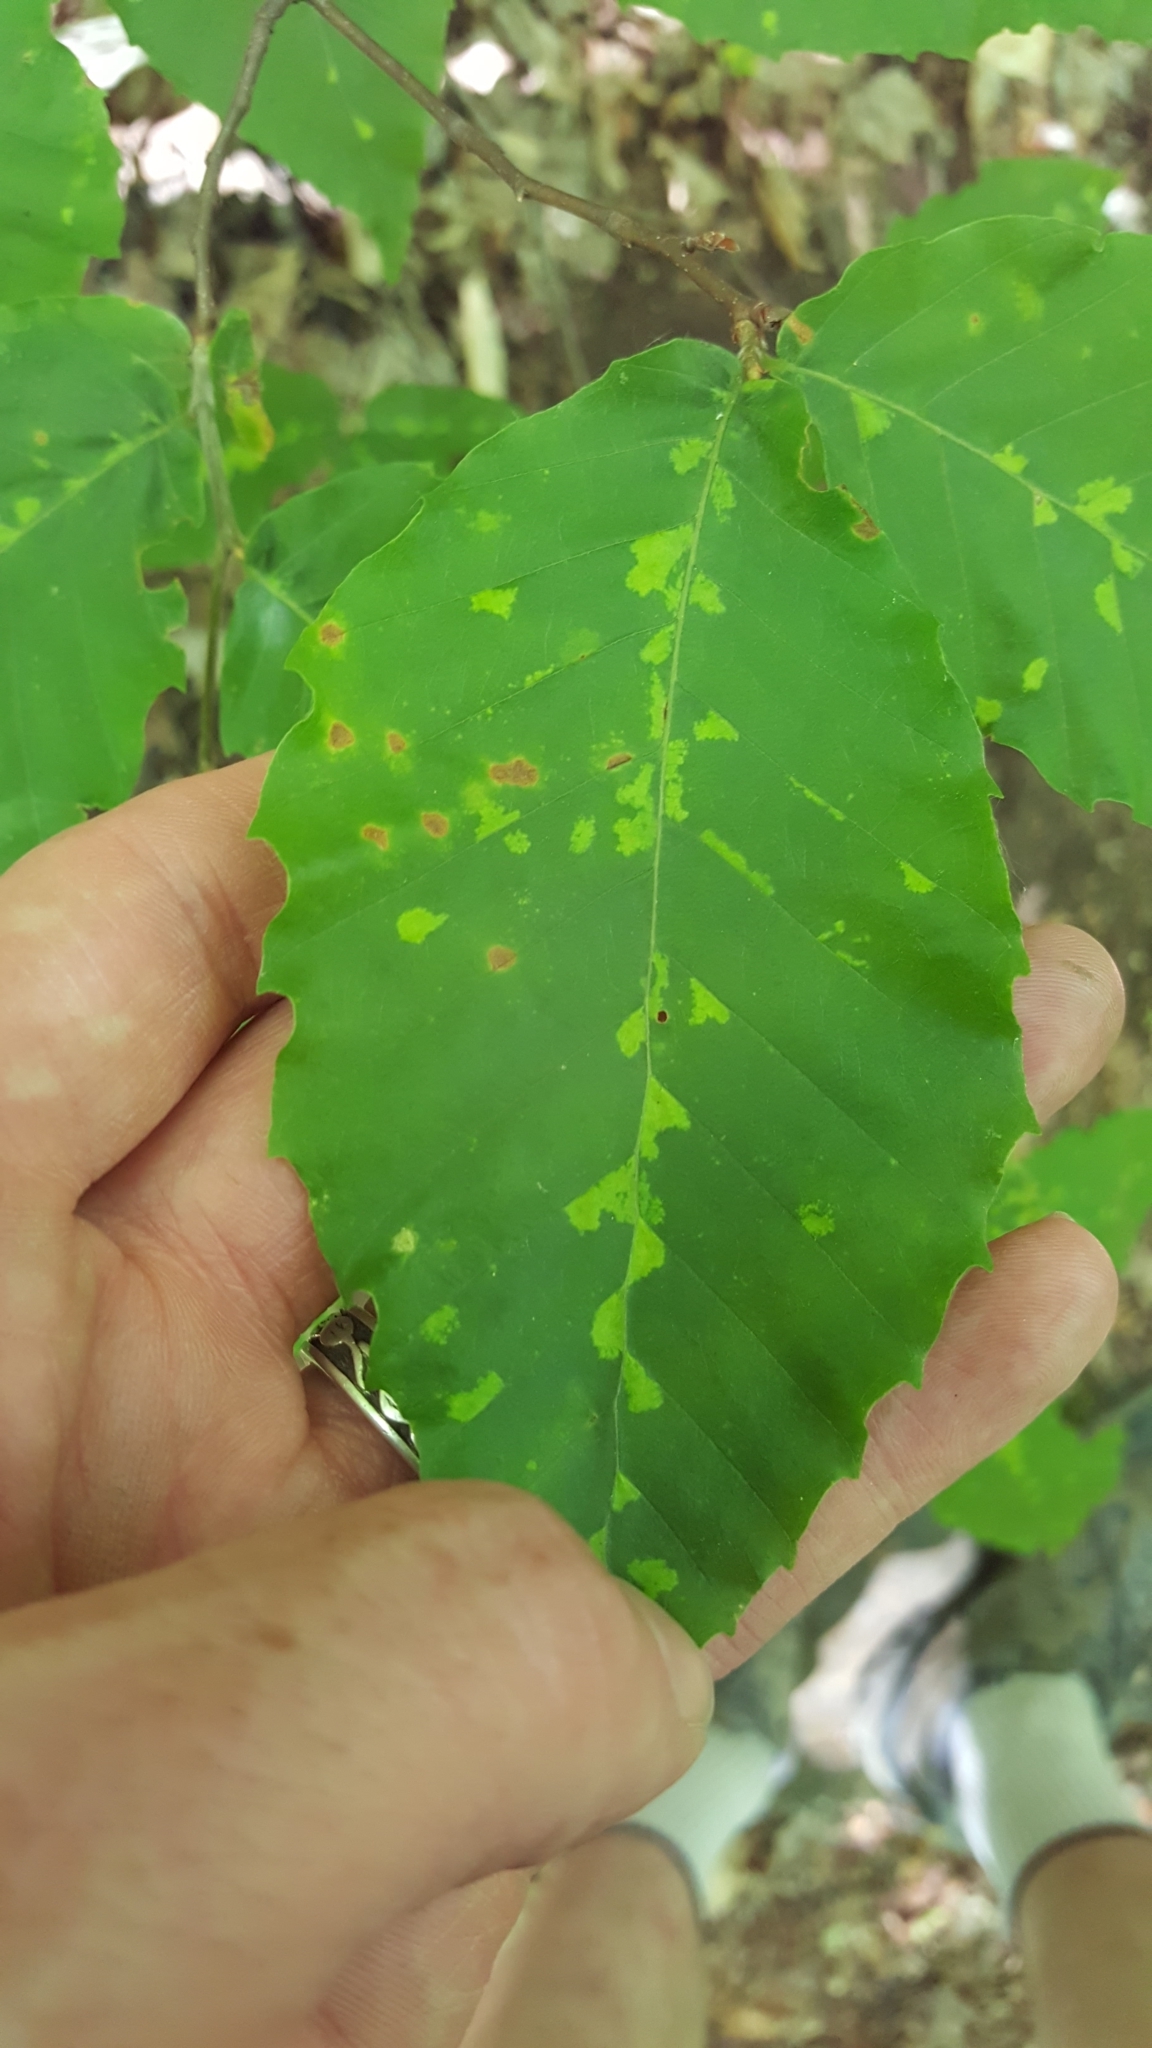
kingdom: Animalia
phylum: Arthropoda
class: Arachnida
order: Trombidiformes
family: Eriophyidae
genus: Acalitus
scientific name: Acalitus
